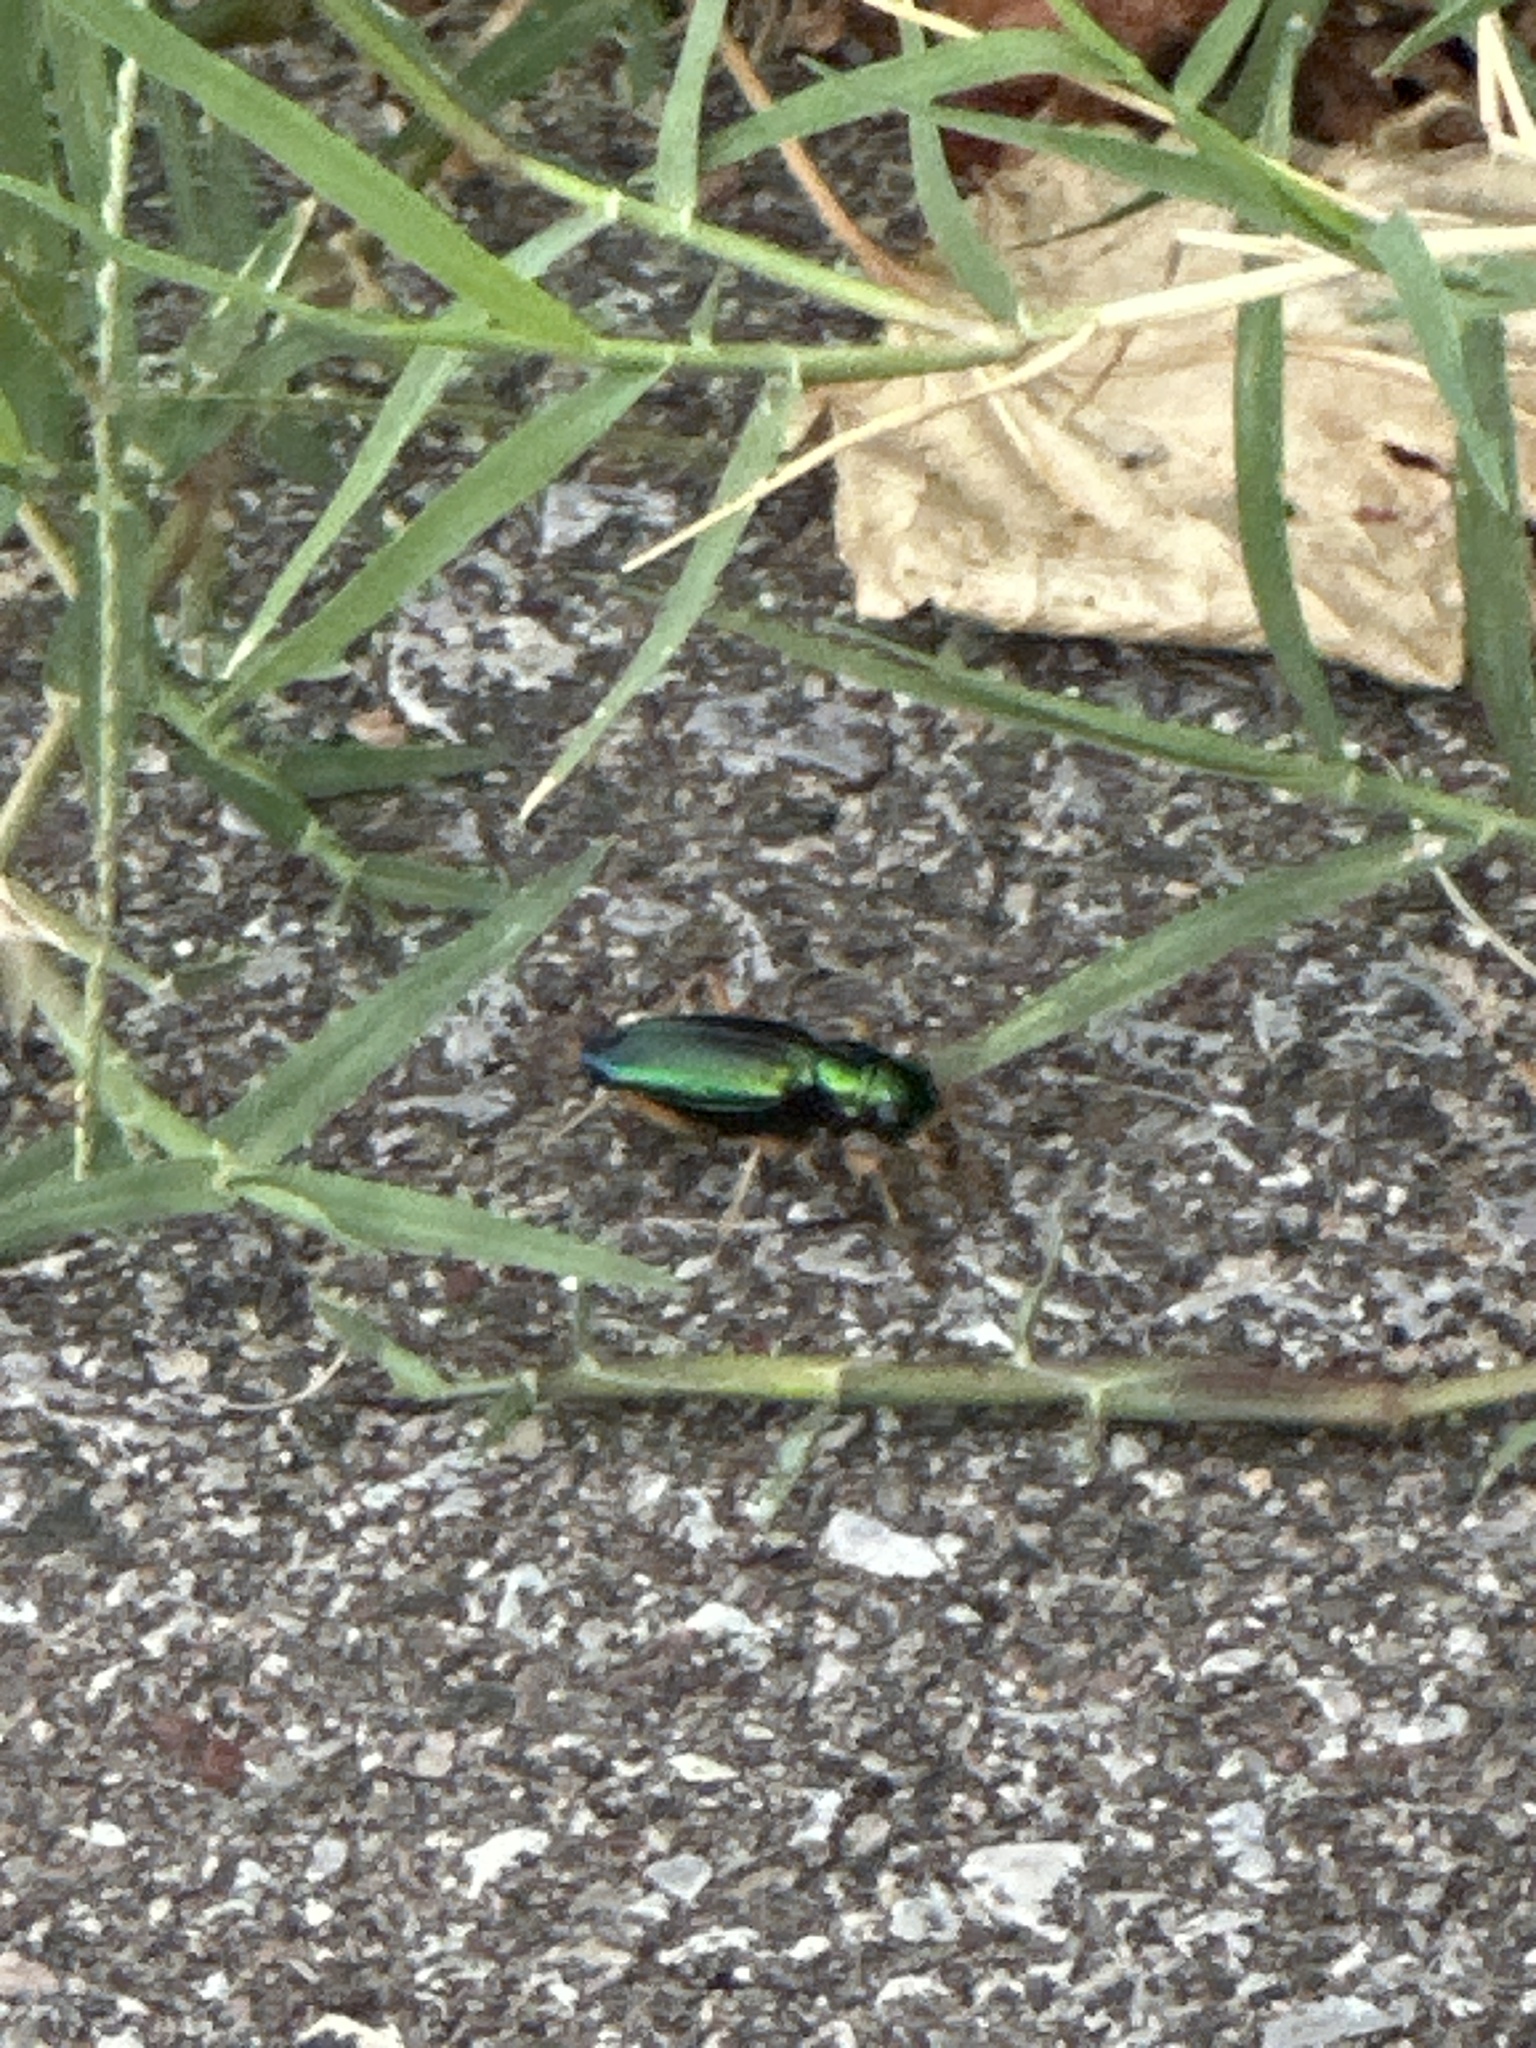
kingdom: Animalia
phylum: Arthropoda
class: Insecta
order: Coleoptera
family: Carabidae
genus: Tetracha
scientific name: Tetracha virginica
